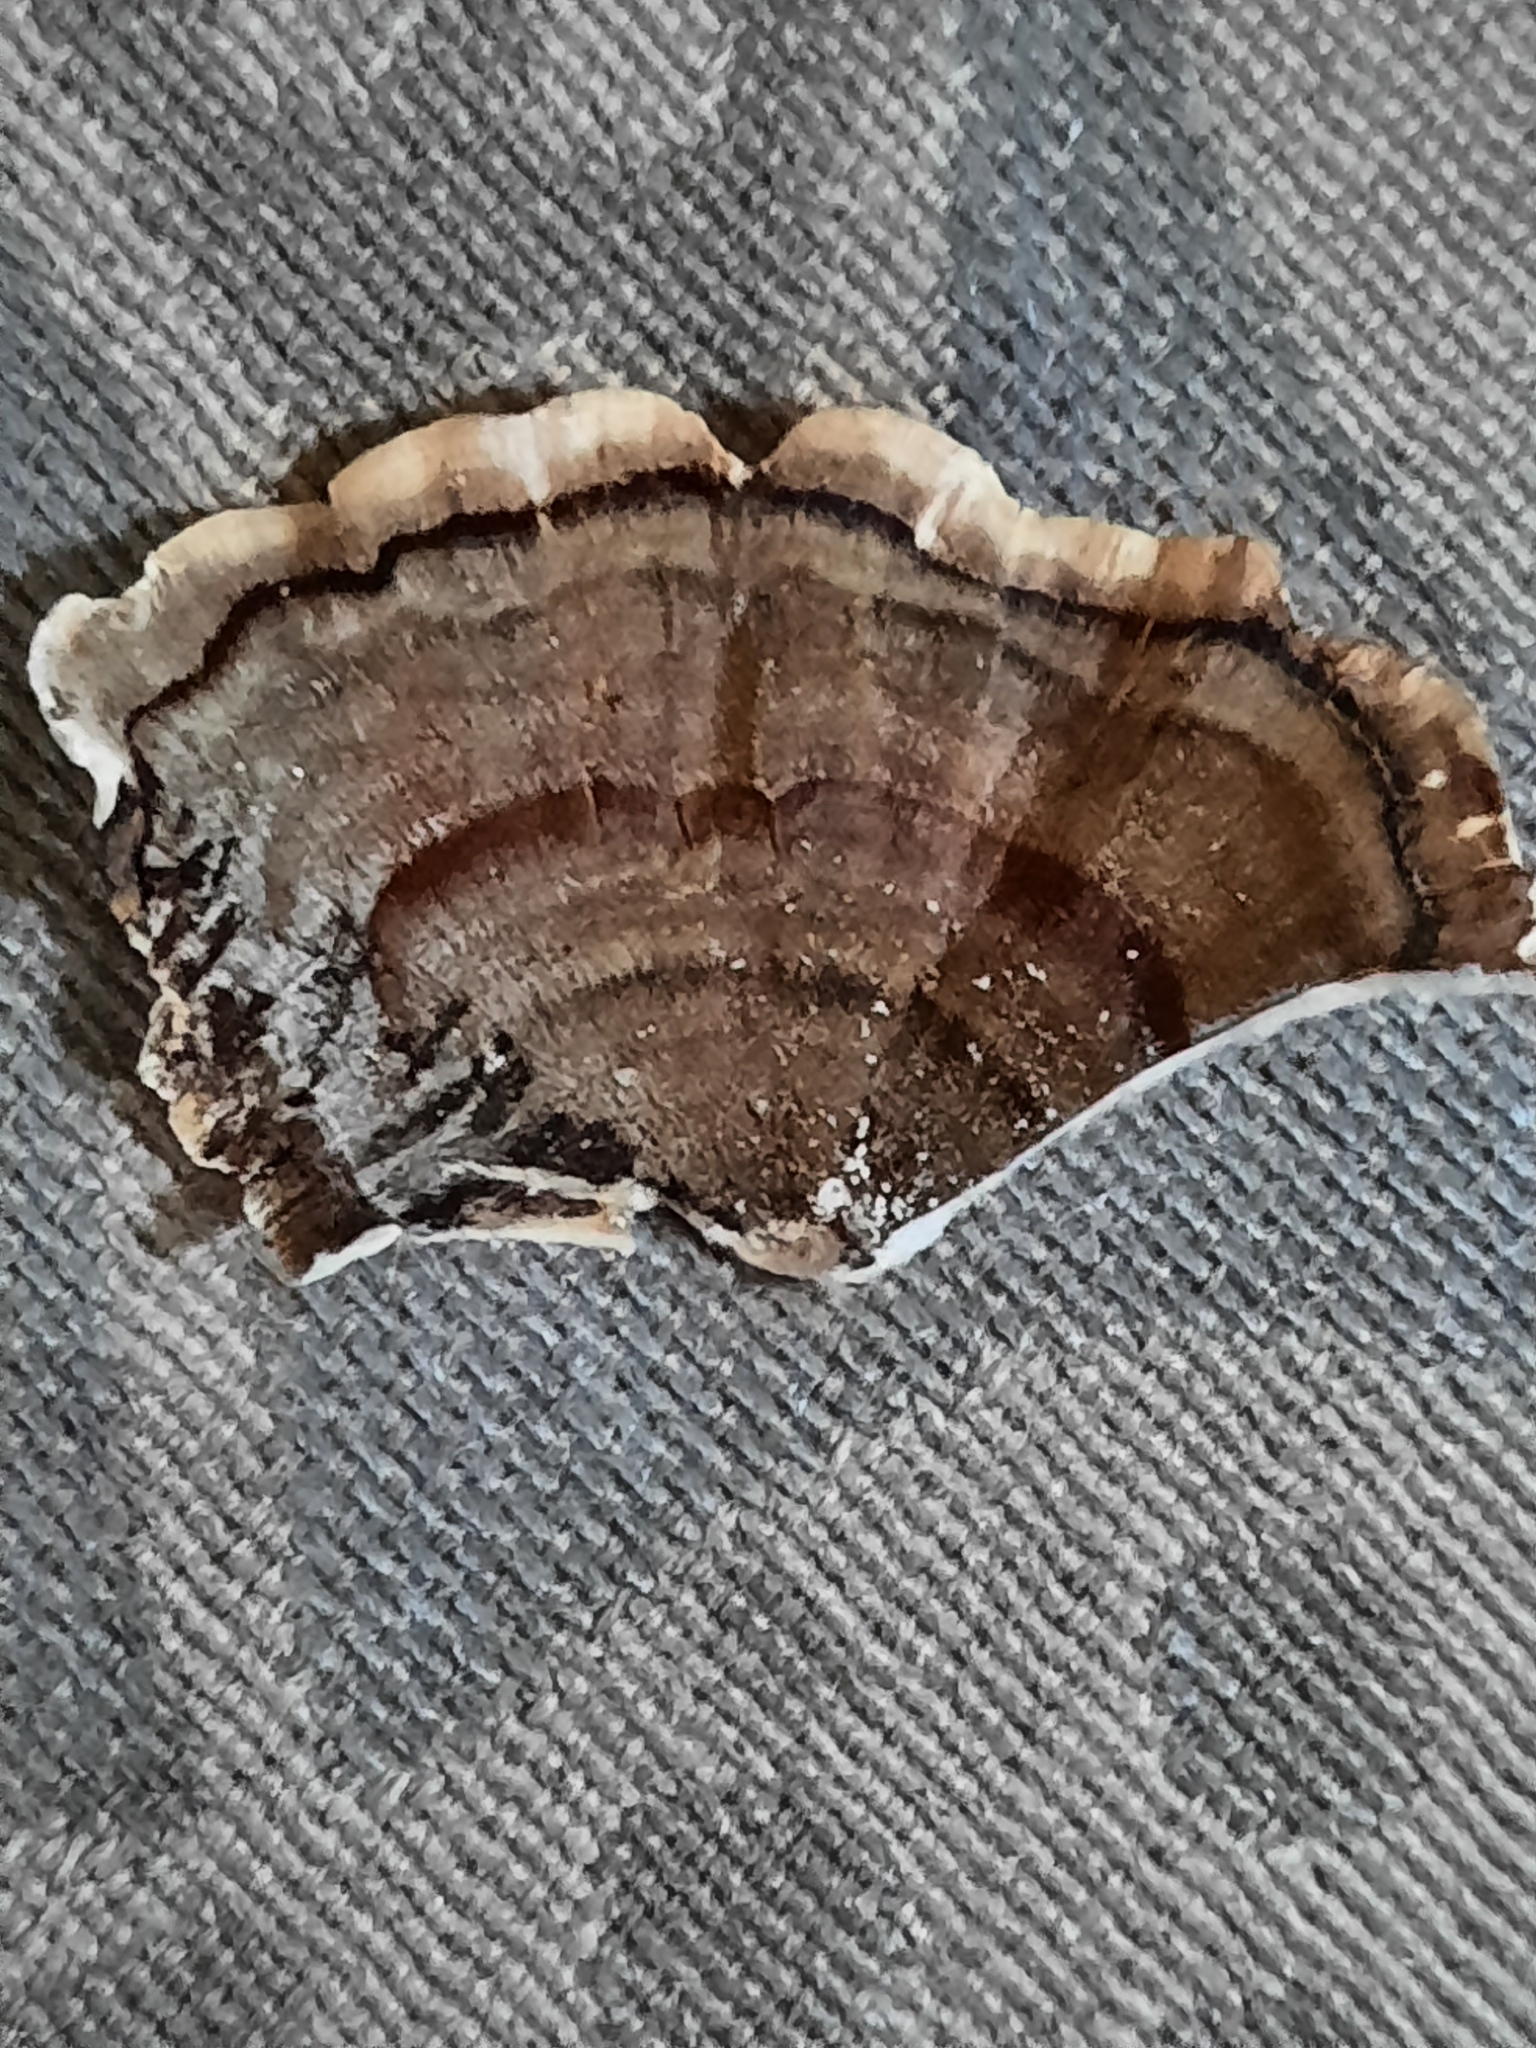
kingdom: Fungi
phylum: Basidiomycota
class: Agaricomycetes
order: Polyporales
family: Polyporaceae
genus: Trametes
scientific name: Trametes versicolor
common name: Turkeytail
